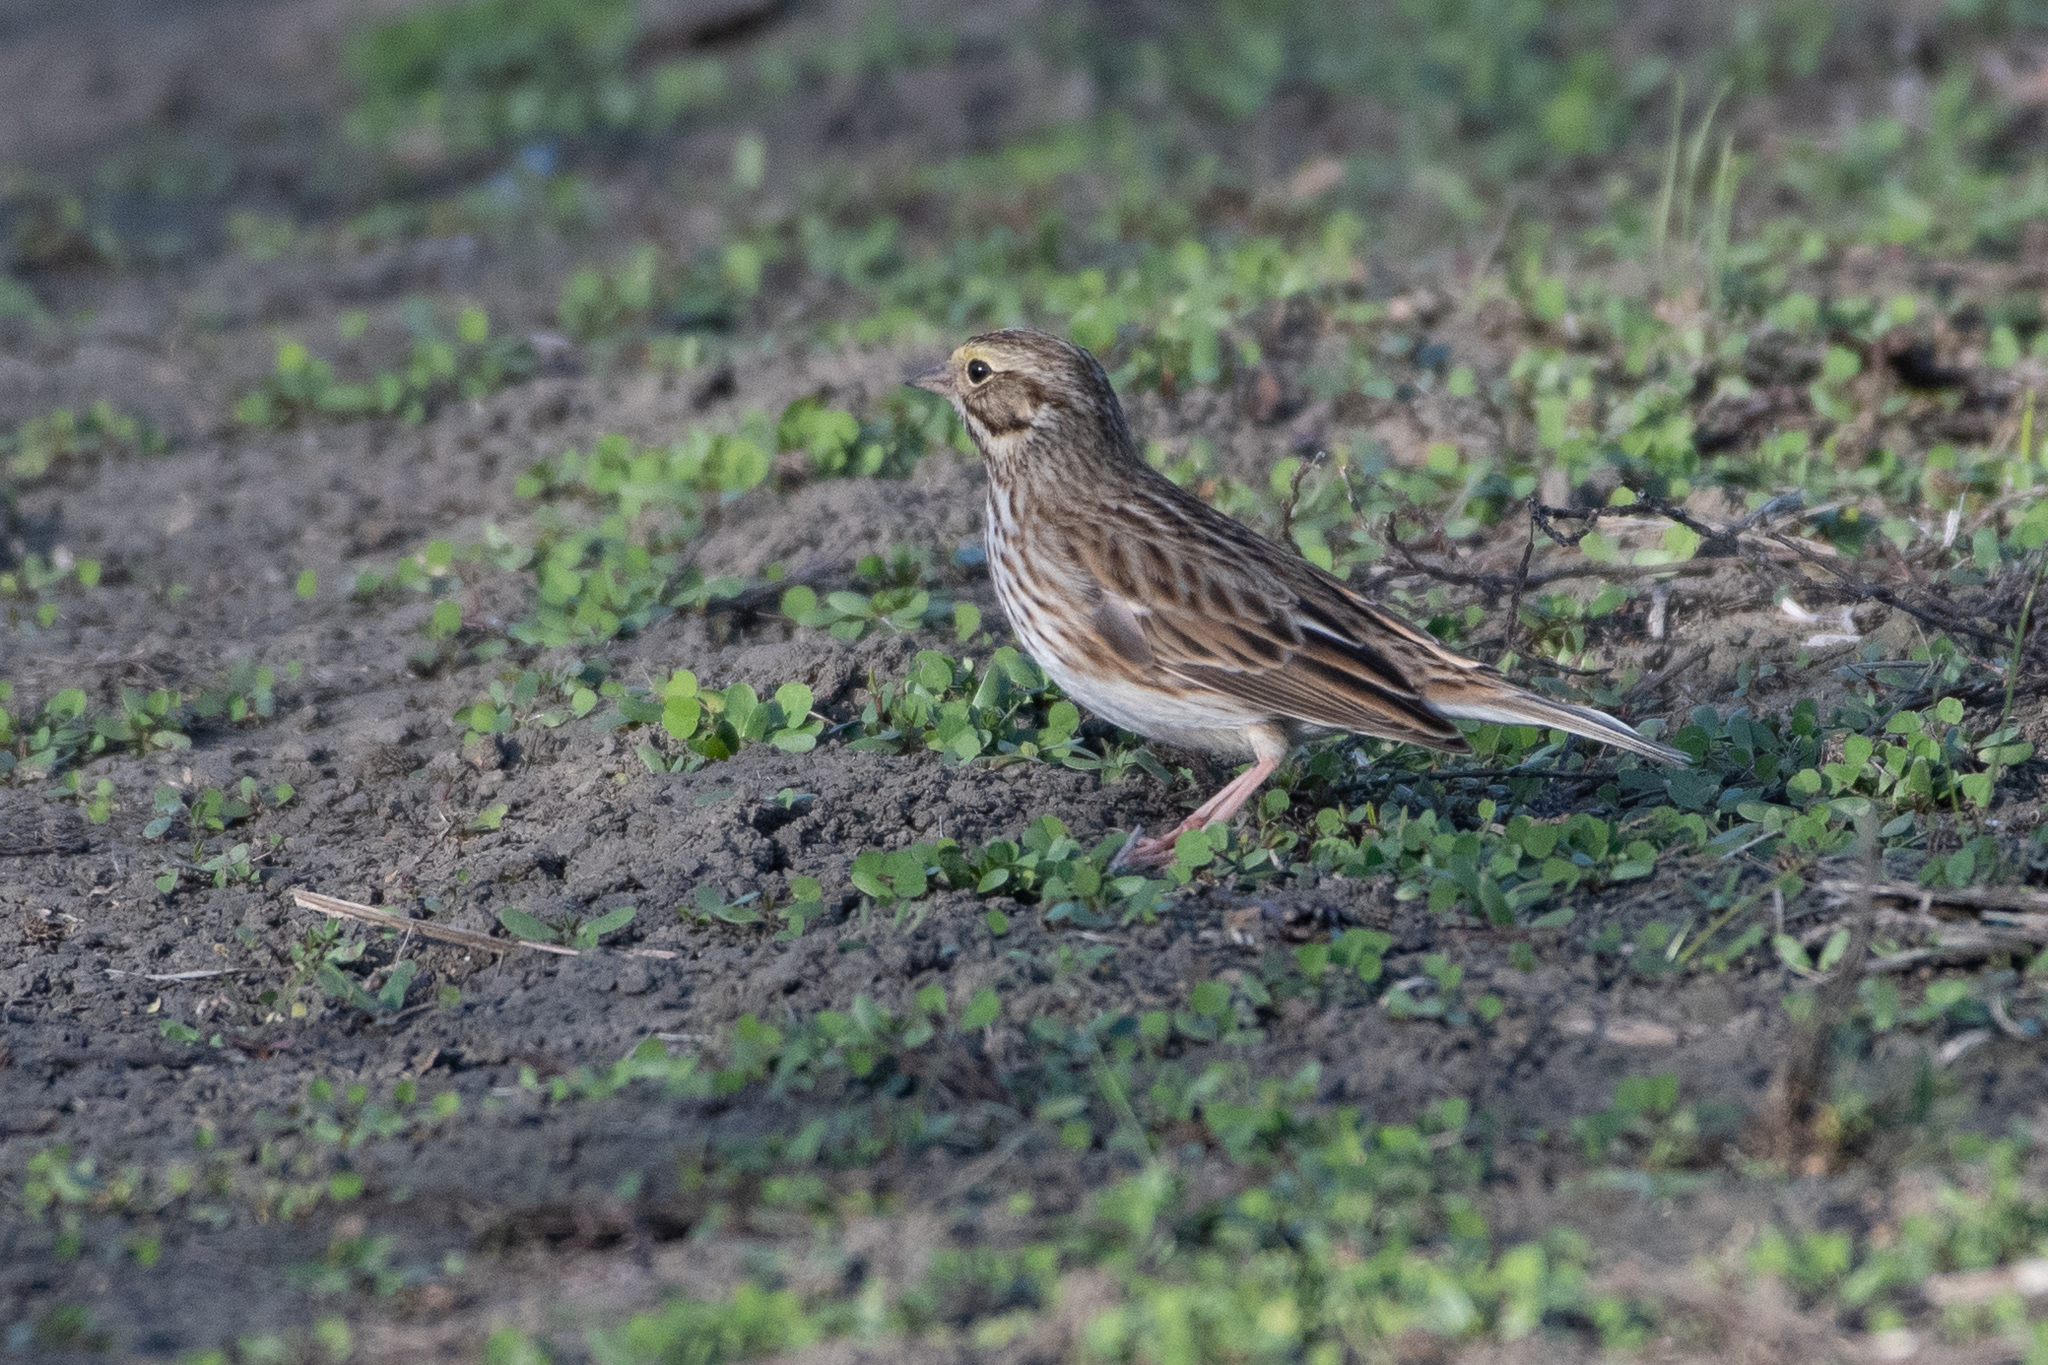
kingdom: Animalia
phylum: Chordata
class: Aves
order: Passeriformes
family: Passerellidae
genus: Passerculus
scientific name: Passerculus sandwichensis
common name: Savannah sparrow
